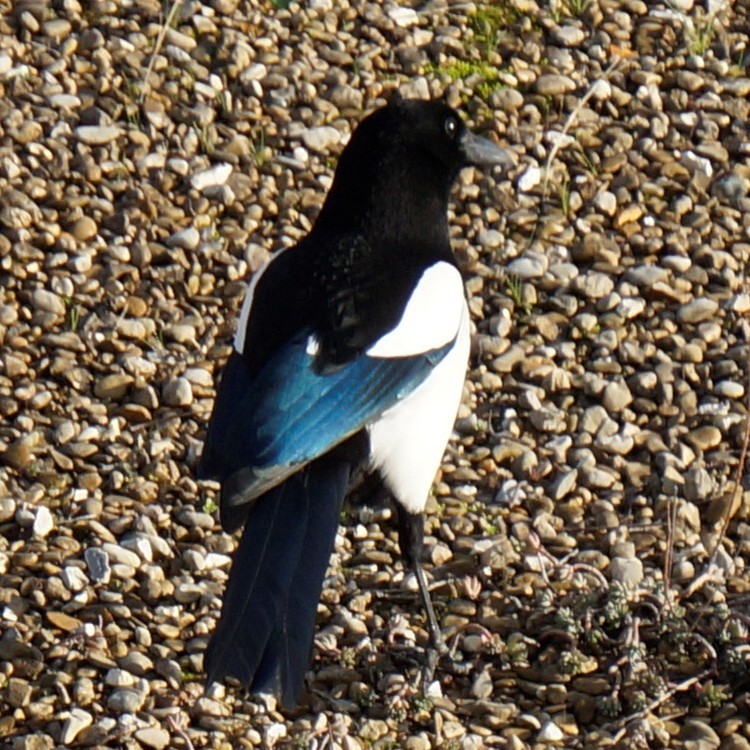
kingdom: Animalia
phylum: Chordata
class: Aves
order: Passeriformes
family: Corvidae
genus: Pica
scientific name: Pica pica
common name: Eurasian magpie
